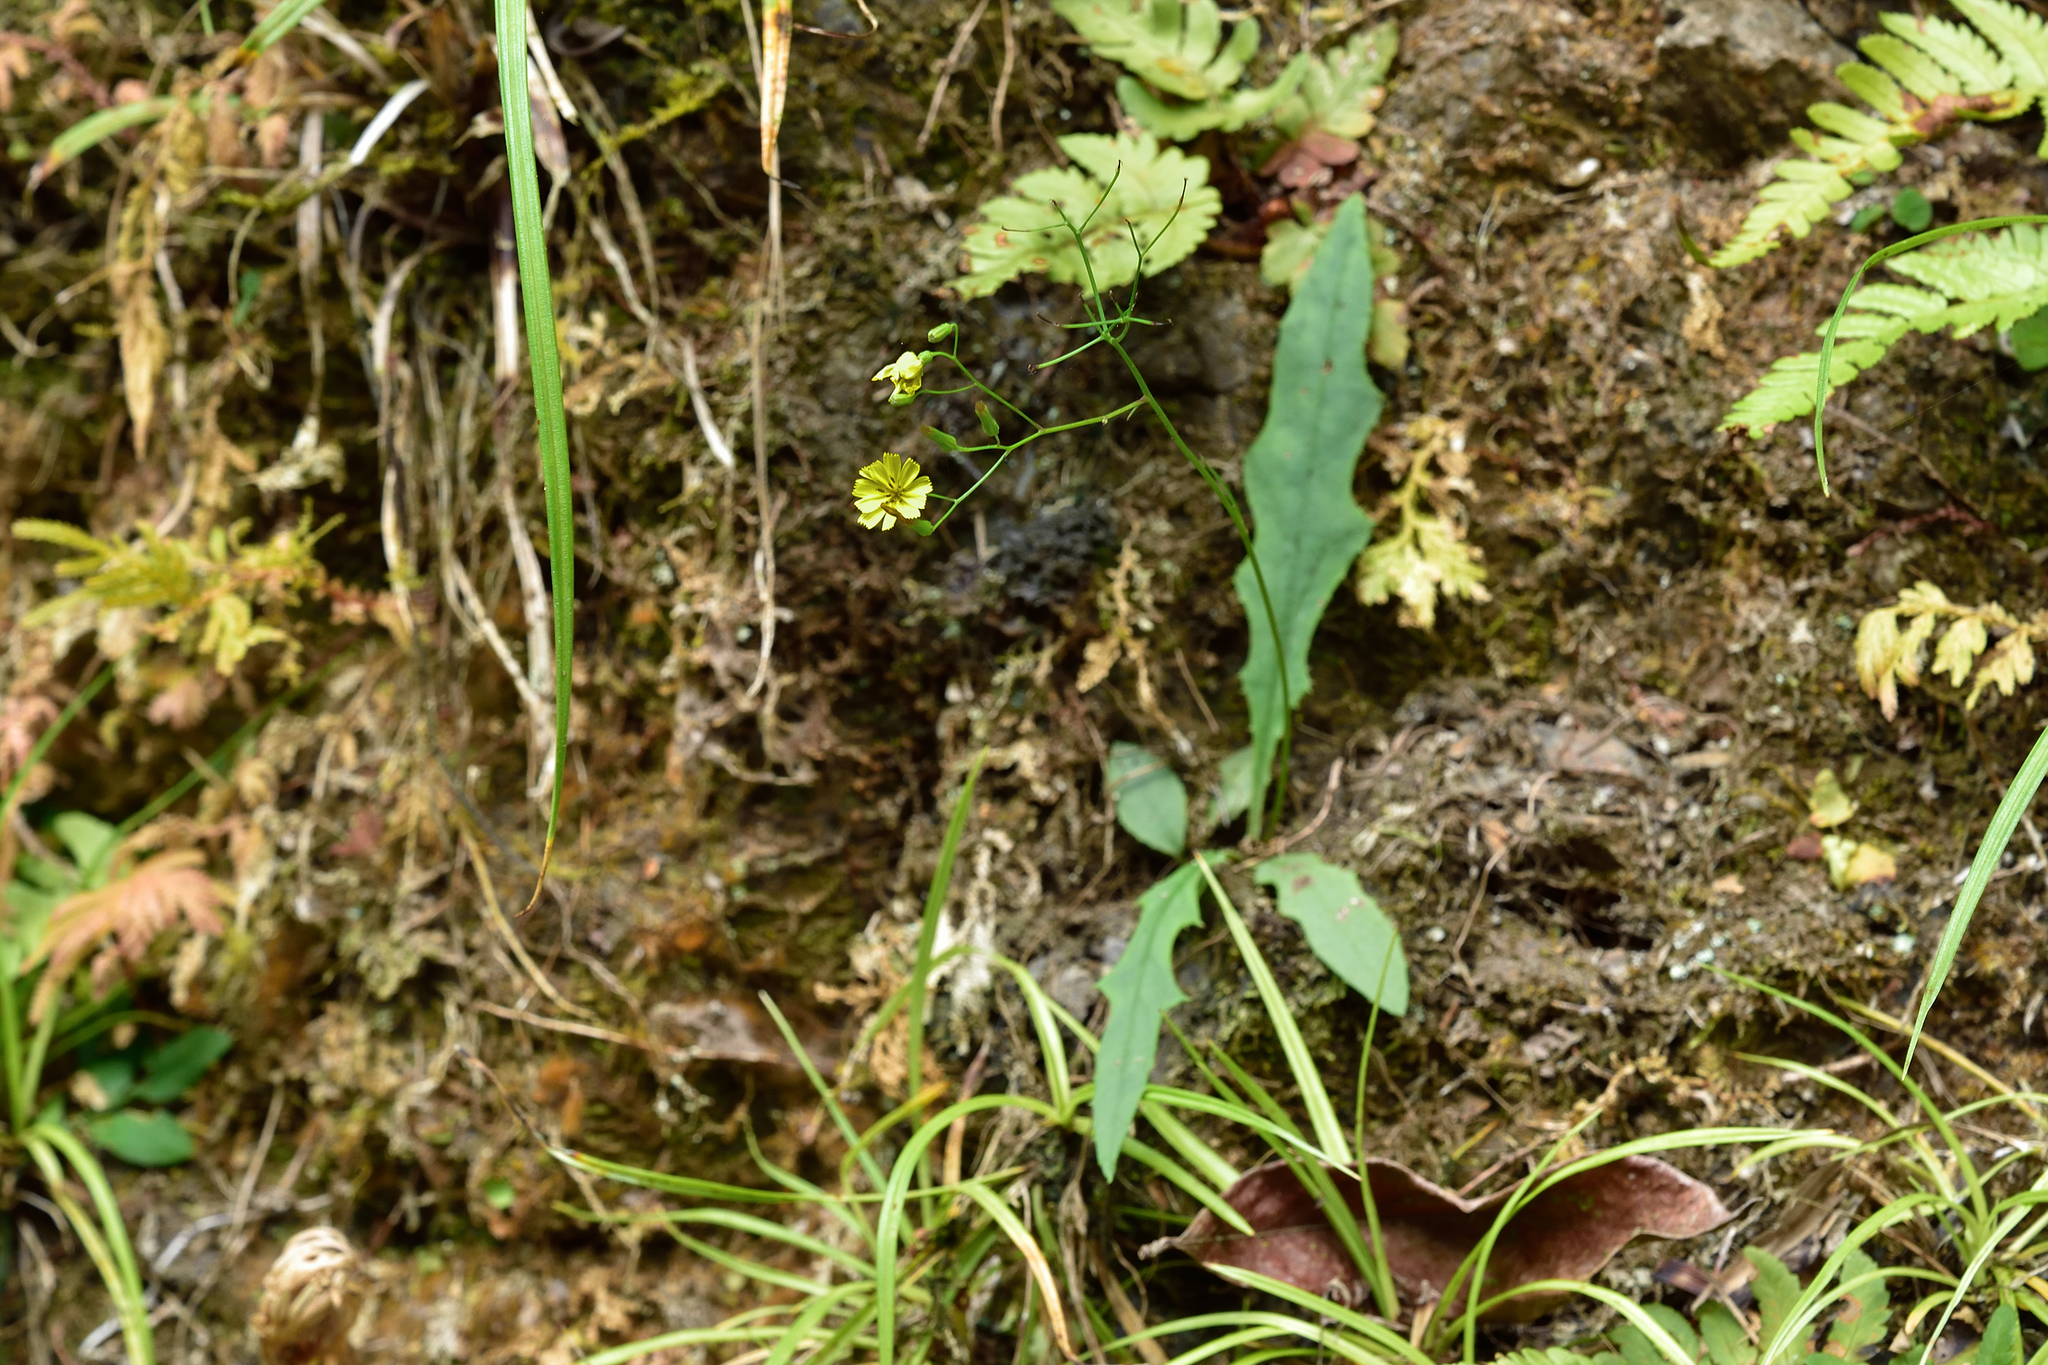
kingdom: Plantae
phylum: Tracheophyta
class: Magnoliopsida
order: Asterales
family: Asteraceae
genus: Ixeridium
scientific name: Ixeridium laevigatum
